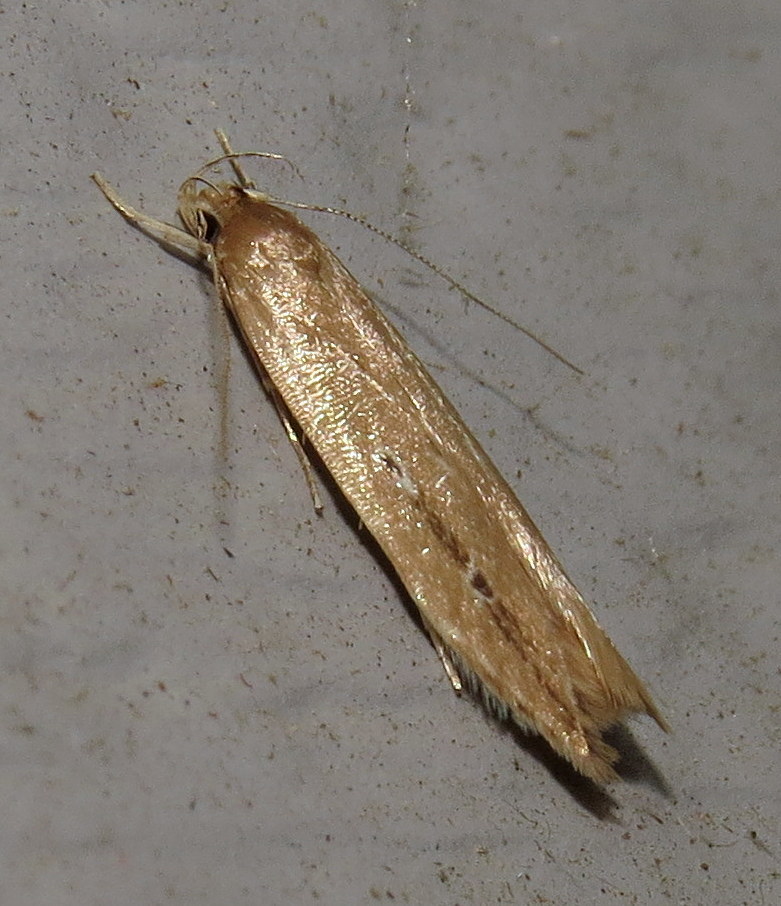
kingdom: Animalia
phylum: Arthropoda
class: Insecta
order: Lepidoptera
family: Cosmopterigidae
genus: Limnaecia
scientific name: Limnaecia phragmitella
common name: Bulrush cosmet
